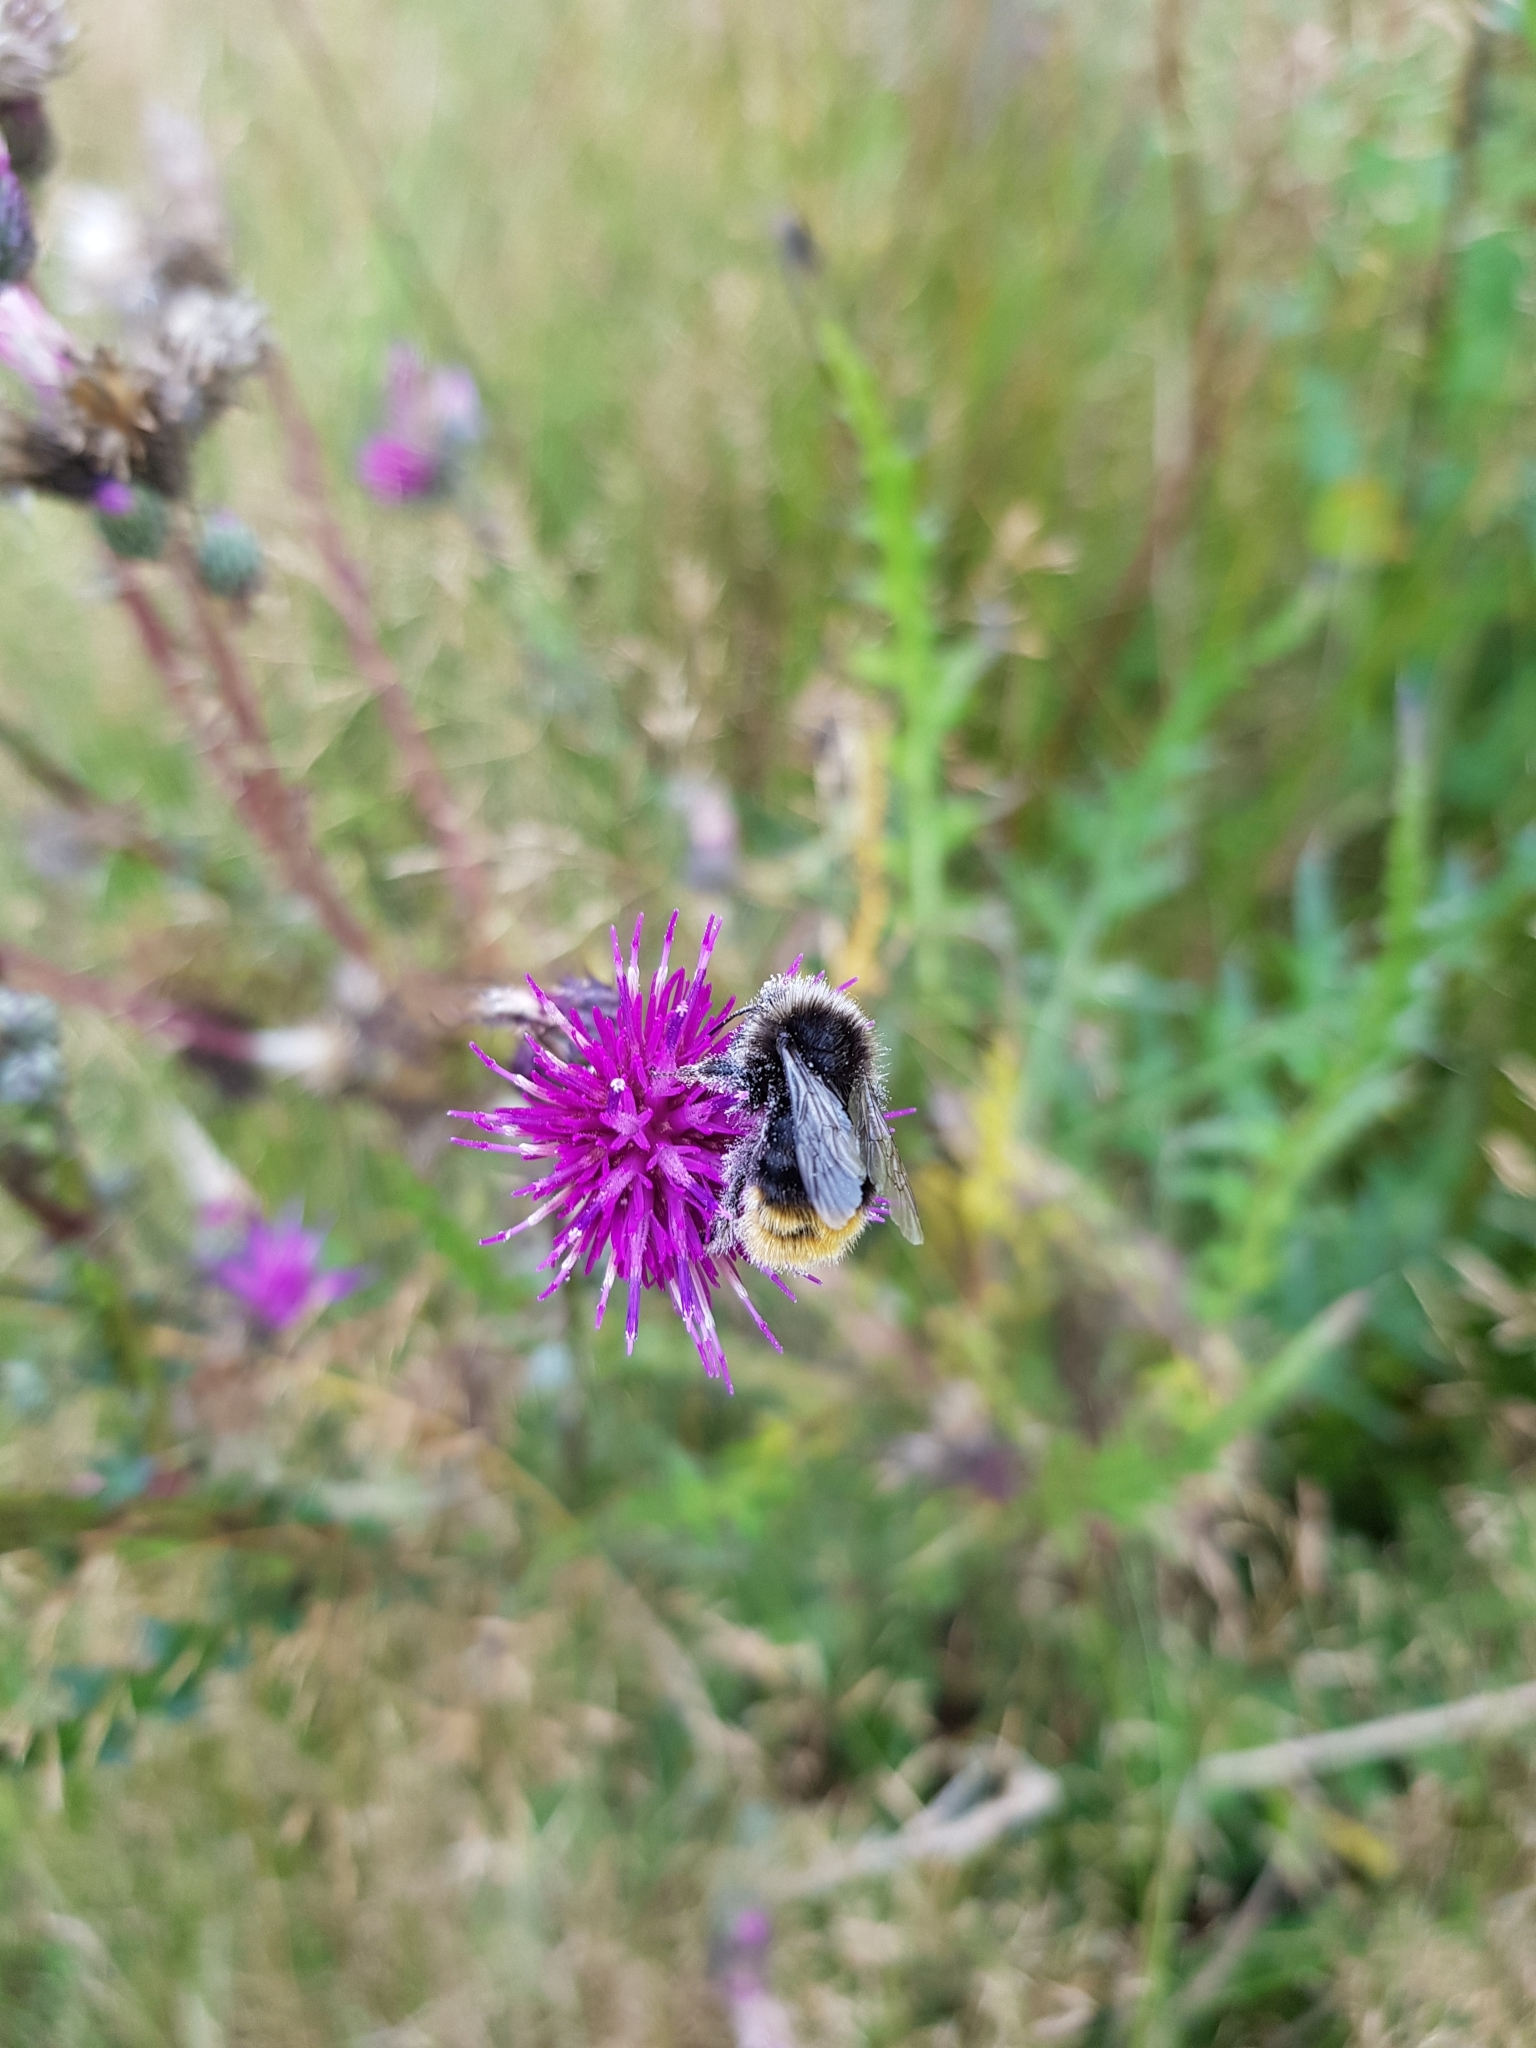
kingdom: Animalia
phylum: Arthropoda
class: Insecta
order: Hymenoptera
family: Apidae
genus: Bombus
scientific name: Bombus lapidarius
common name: Large red-tailed humble-bee
